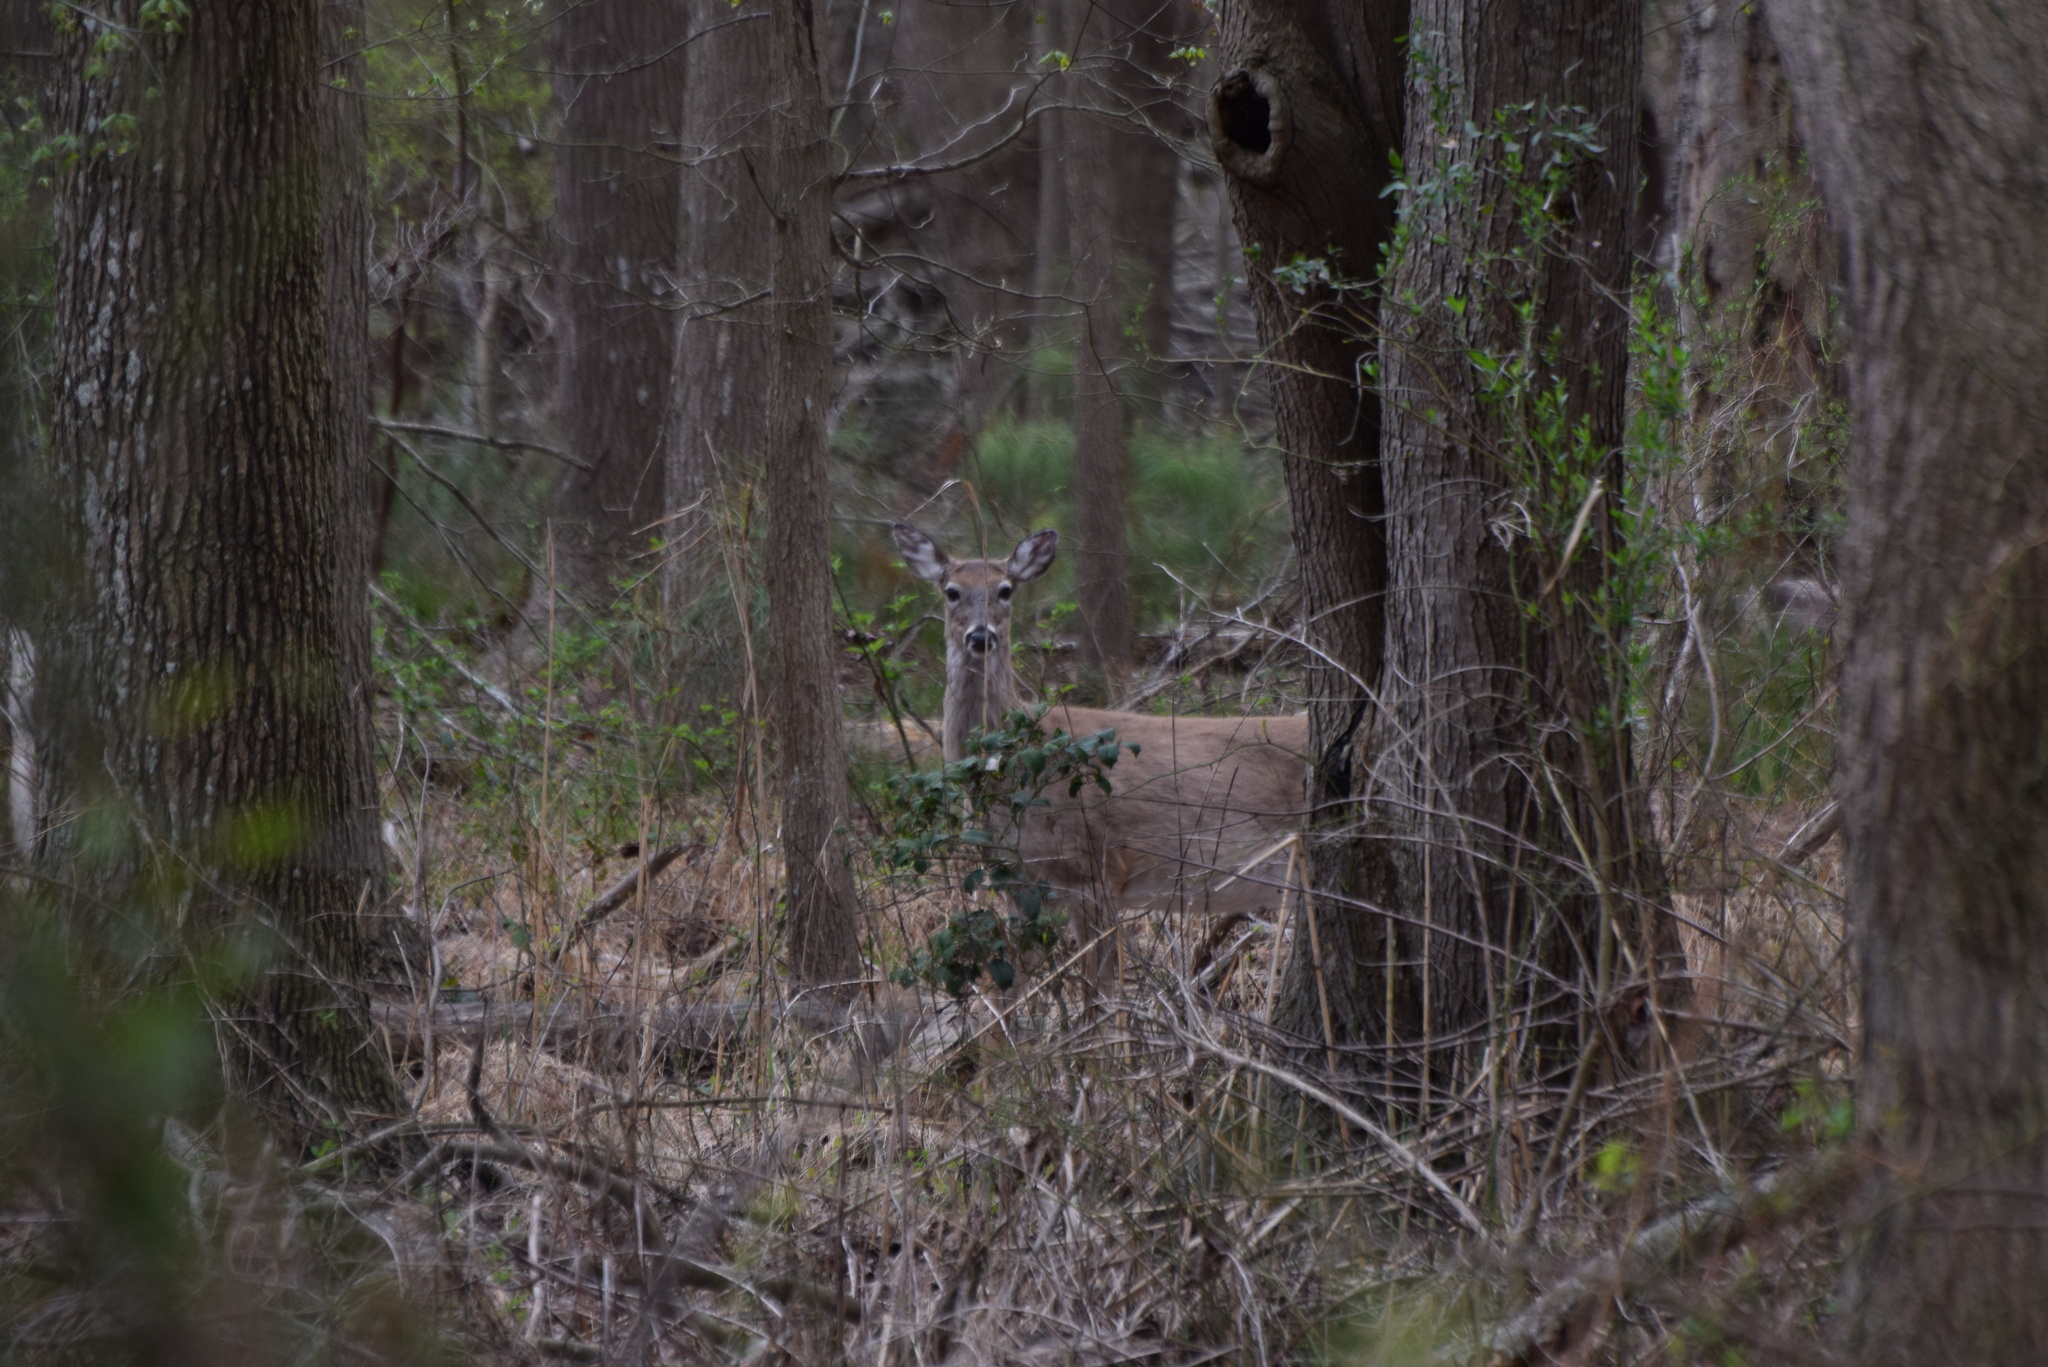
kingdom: Animalia
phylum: Chordata
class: Mammalia
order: Artiodactyla
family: Cervidae
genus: Odocoileus
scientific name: Odocoileus virginianus
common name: White-tailed deer
